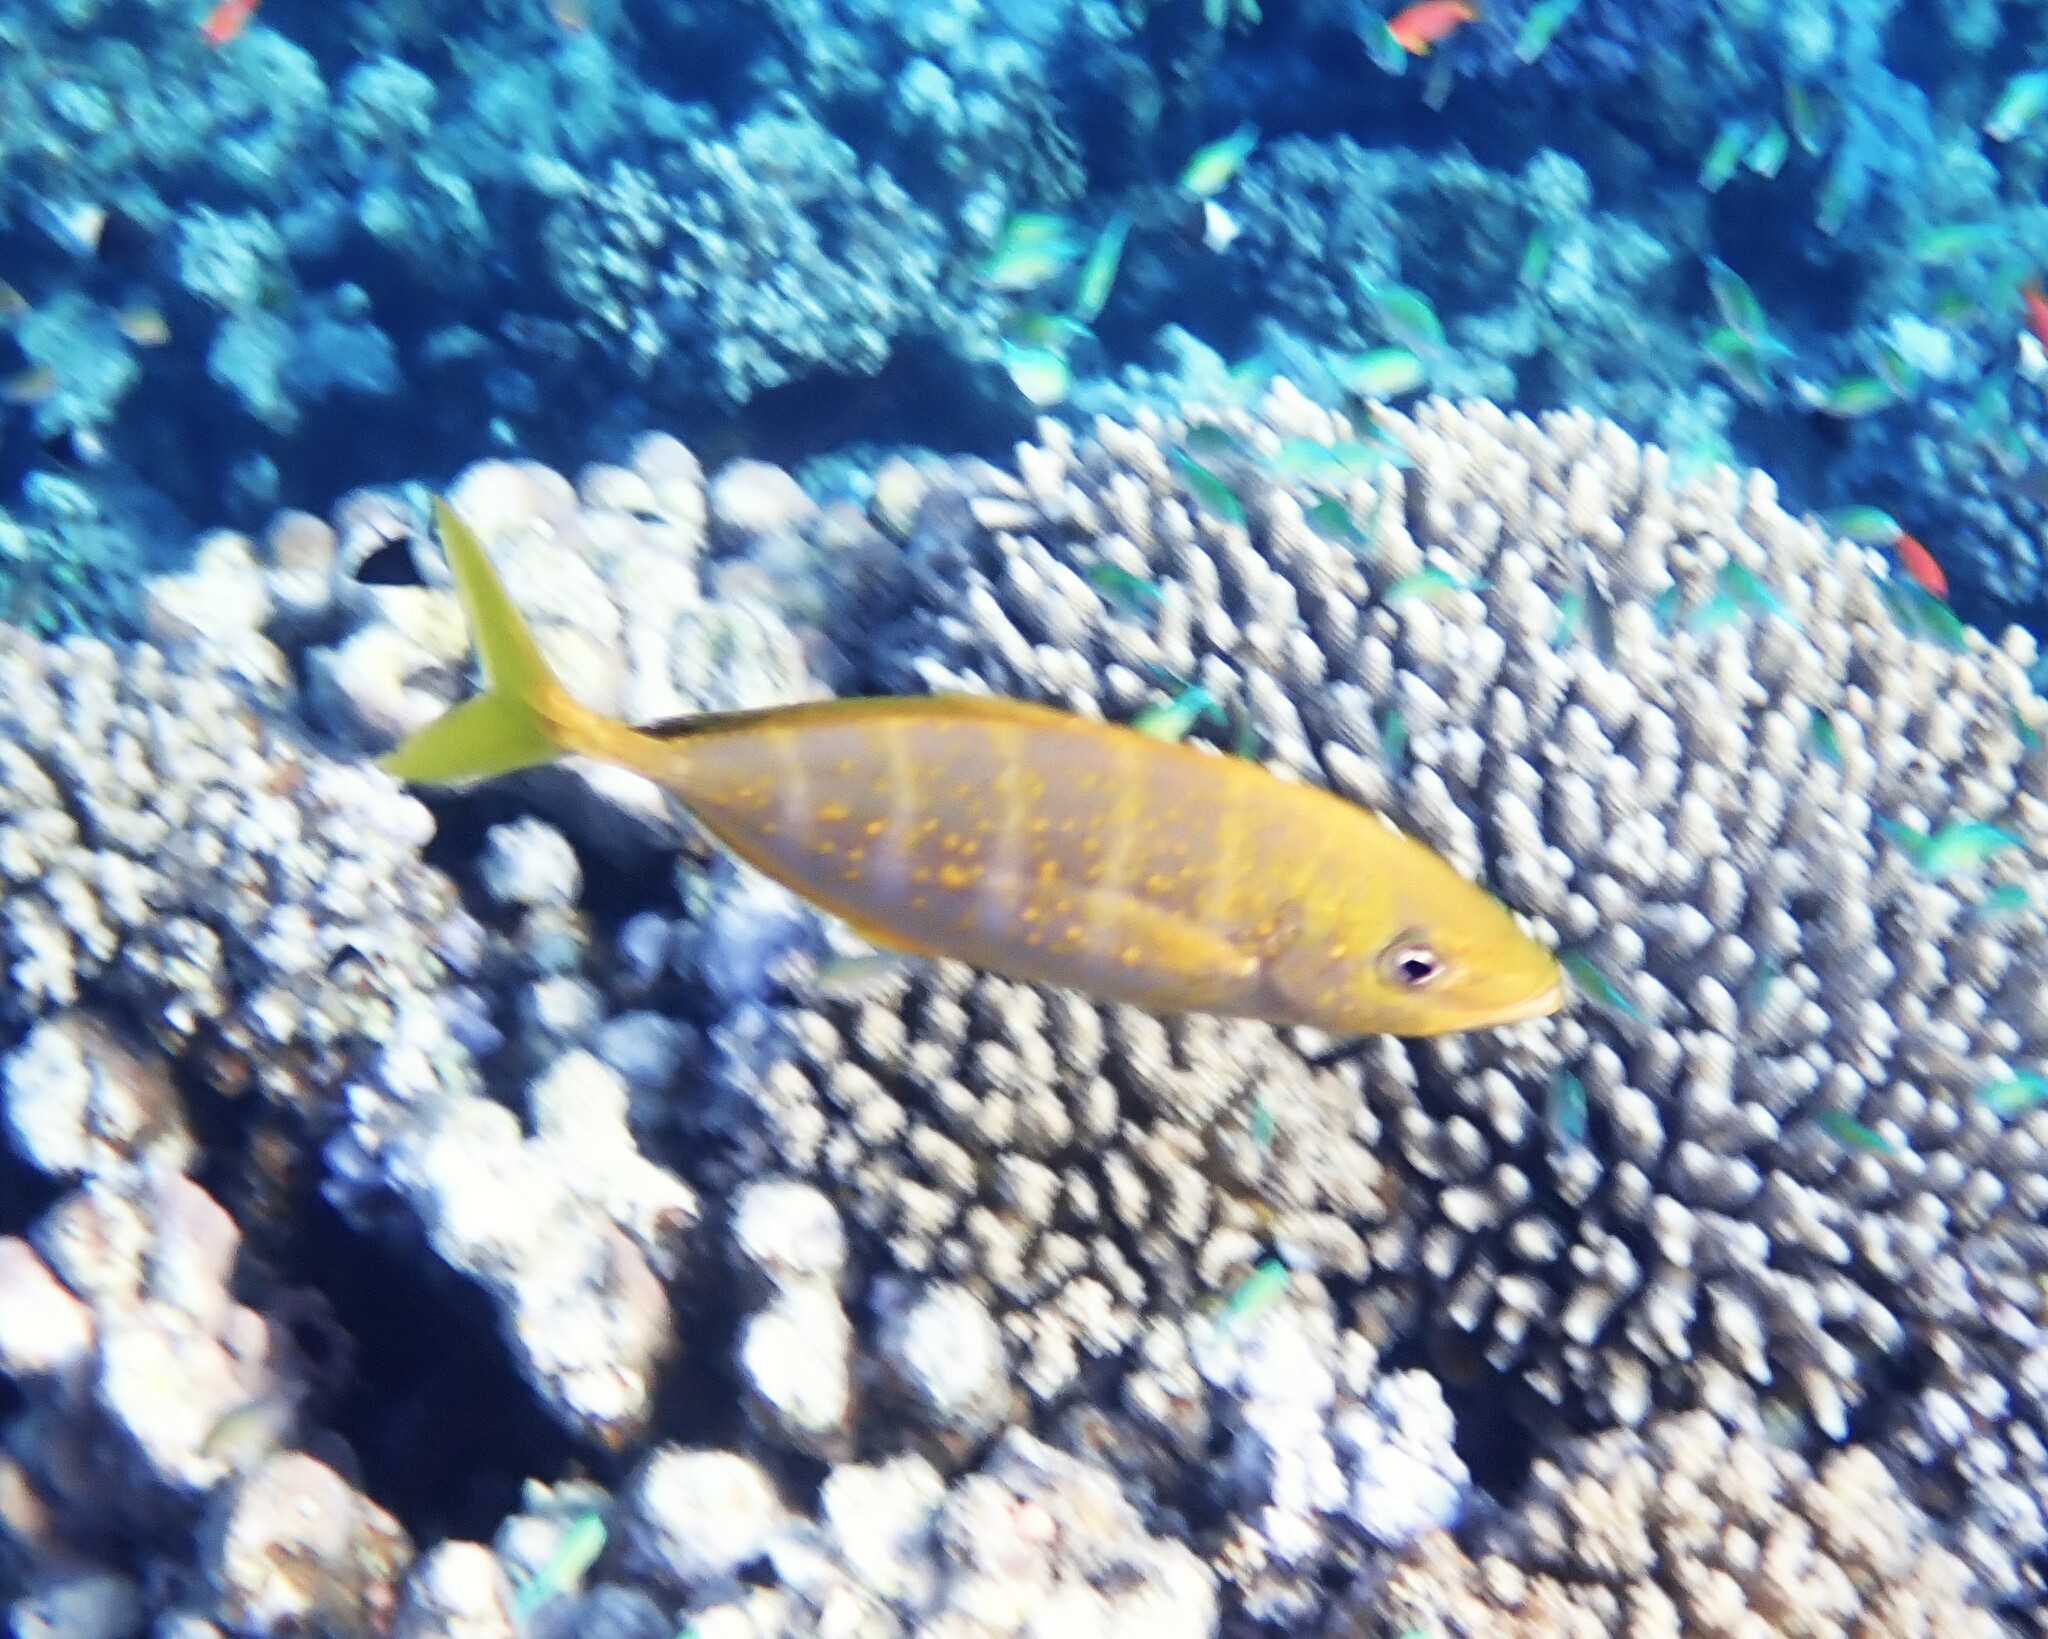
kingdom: Animalia
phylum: Chordata
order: Perciformes
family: Carangidae
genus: Flavocaranx
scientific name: Flavocaranx bajad
